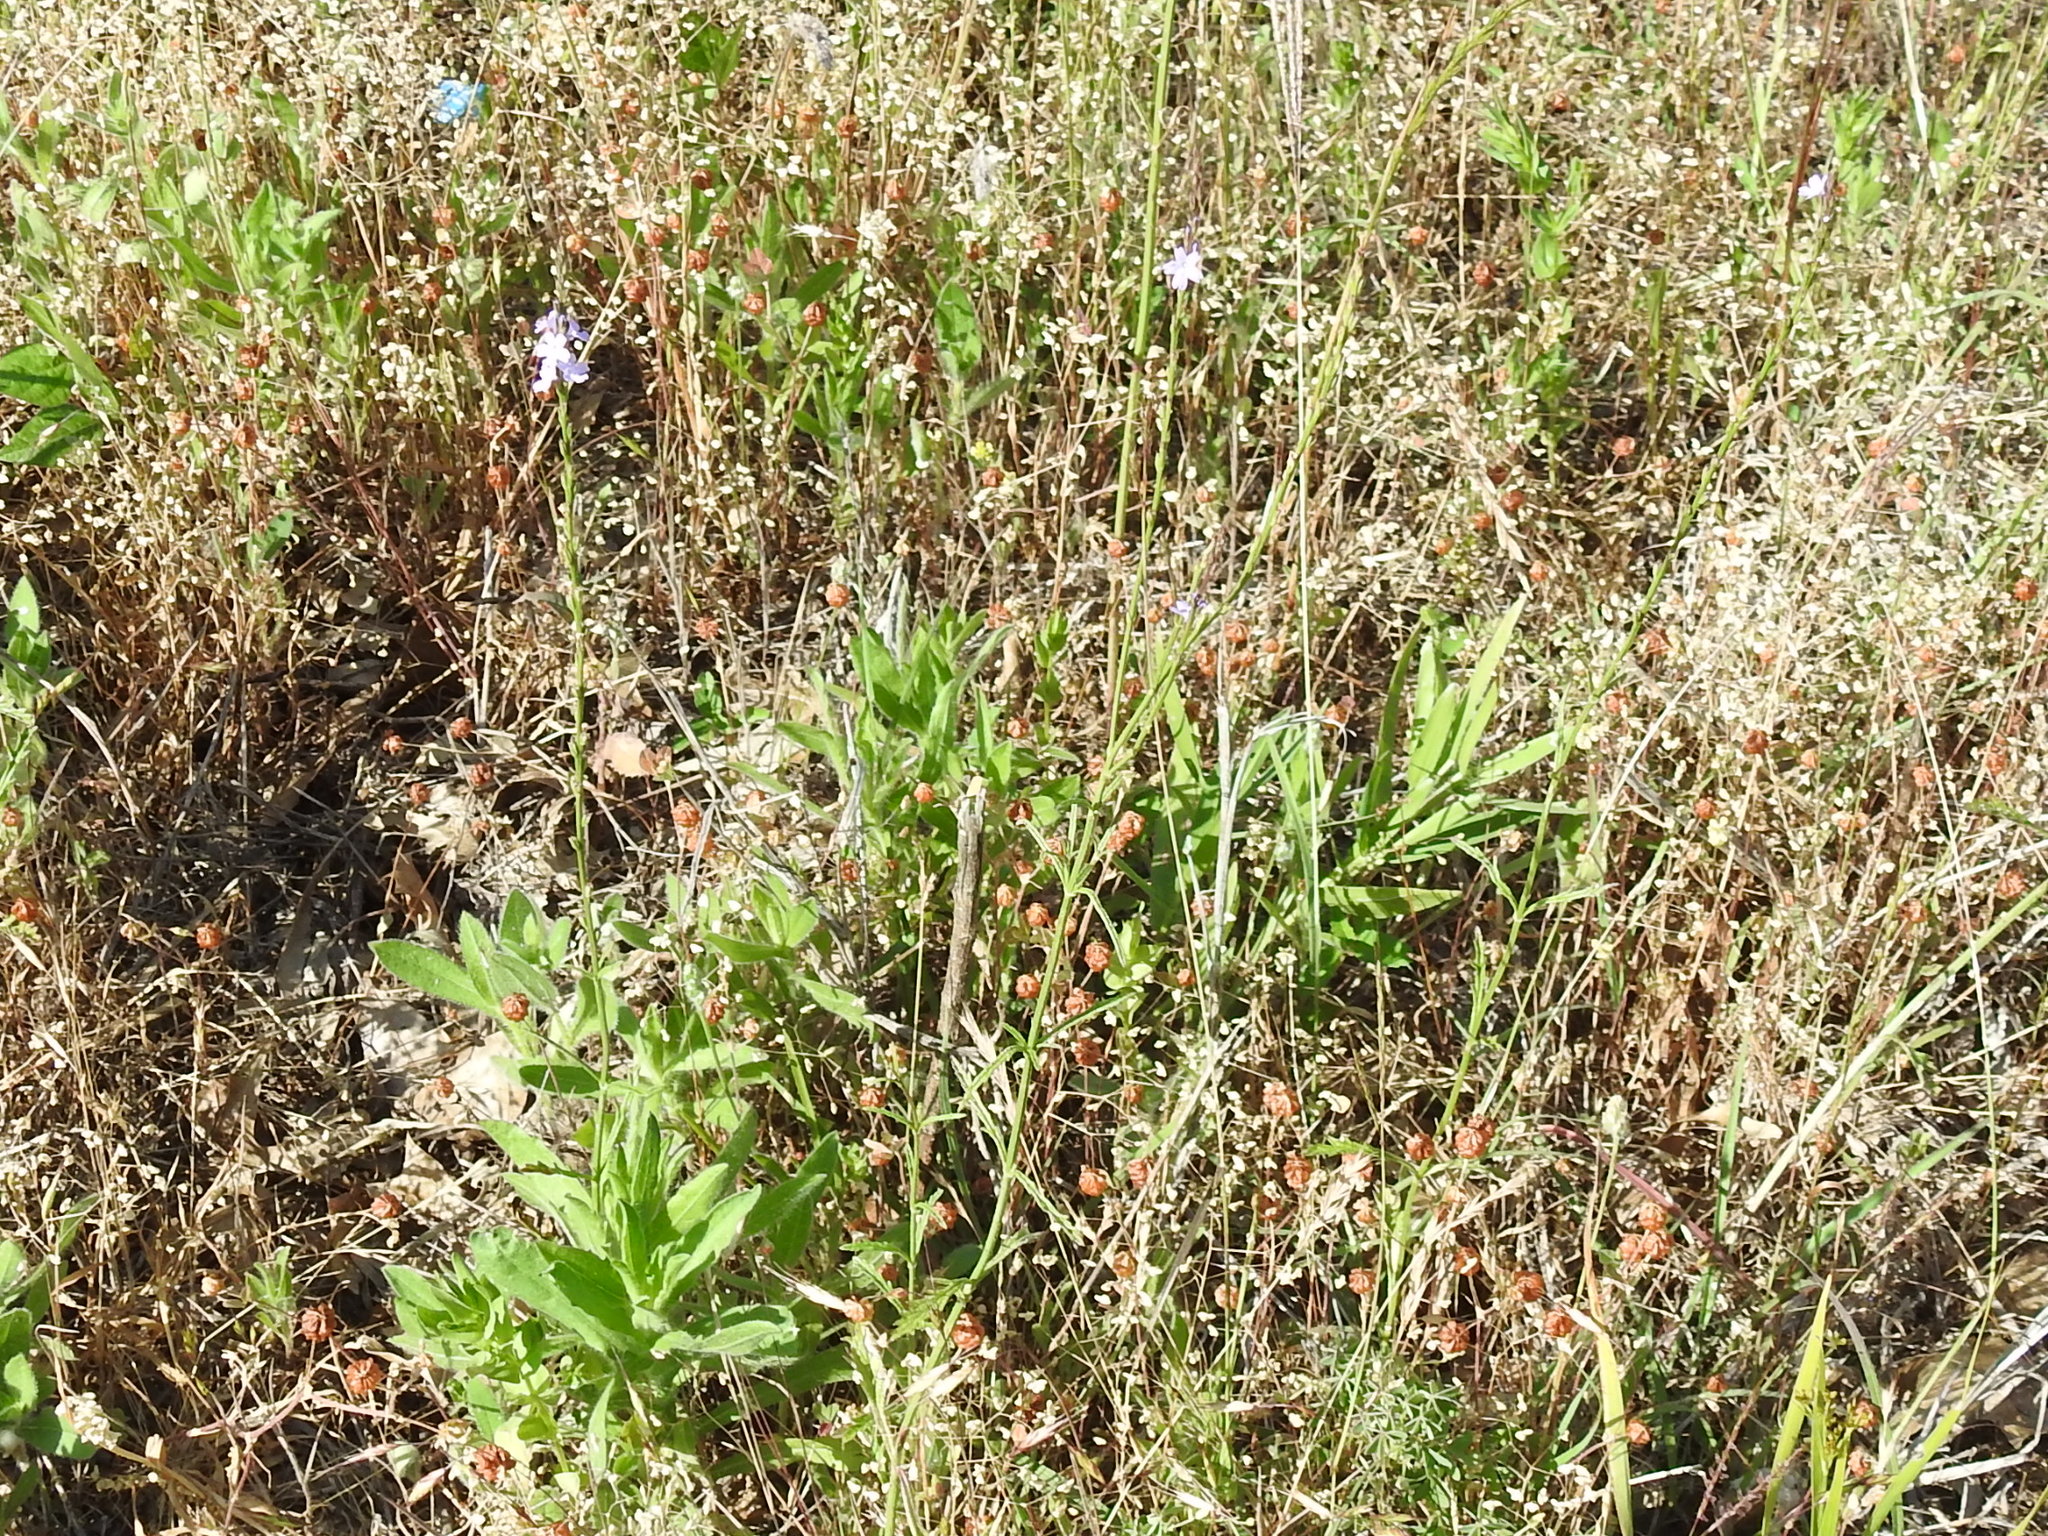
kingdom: Plantae
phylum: Tracheophyta
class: Magnoliopsida
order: Lamiales
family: Verbenaceae
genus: Verbena
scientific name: Verbena halei
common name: Texas vervain
